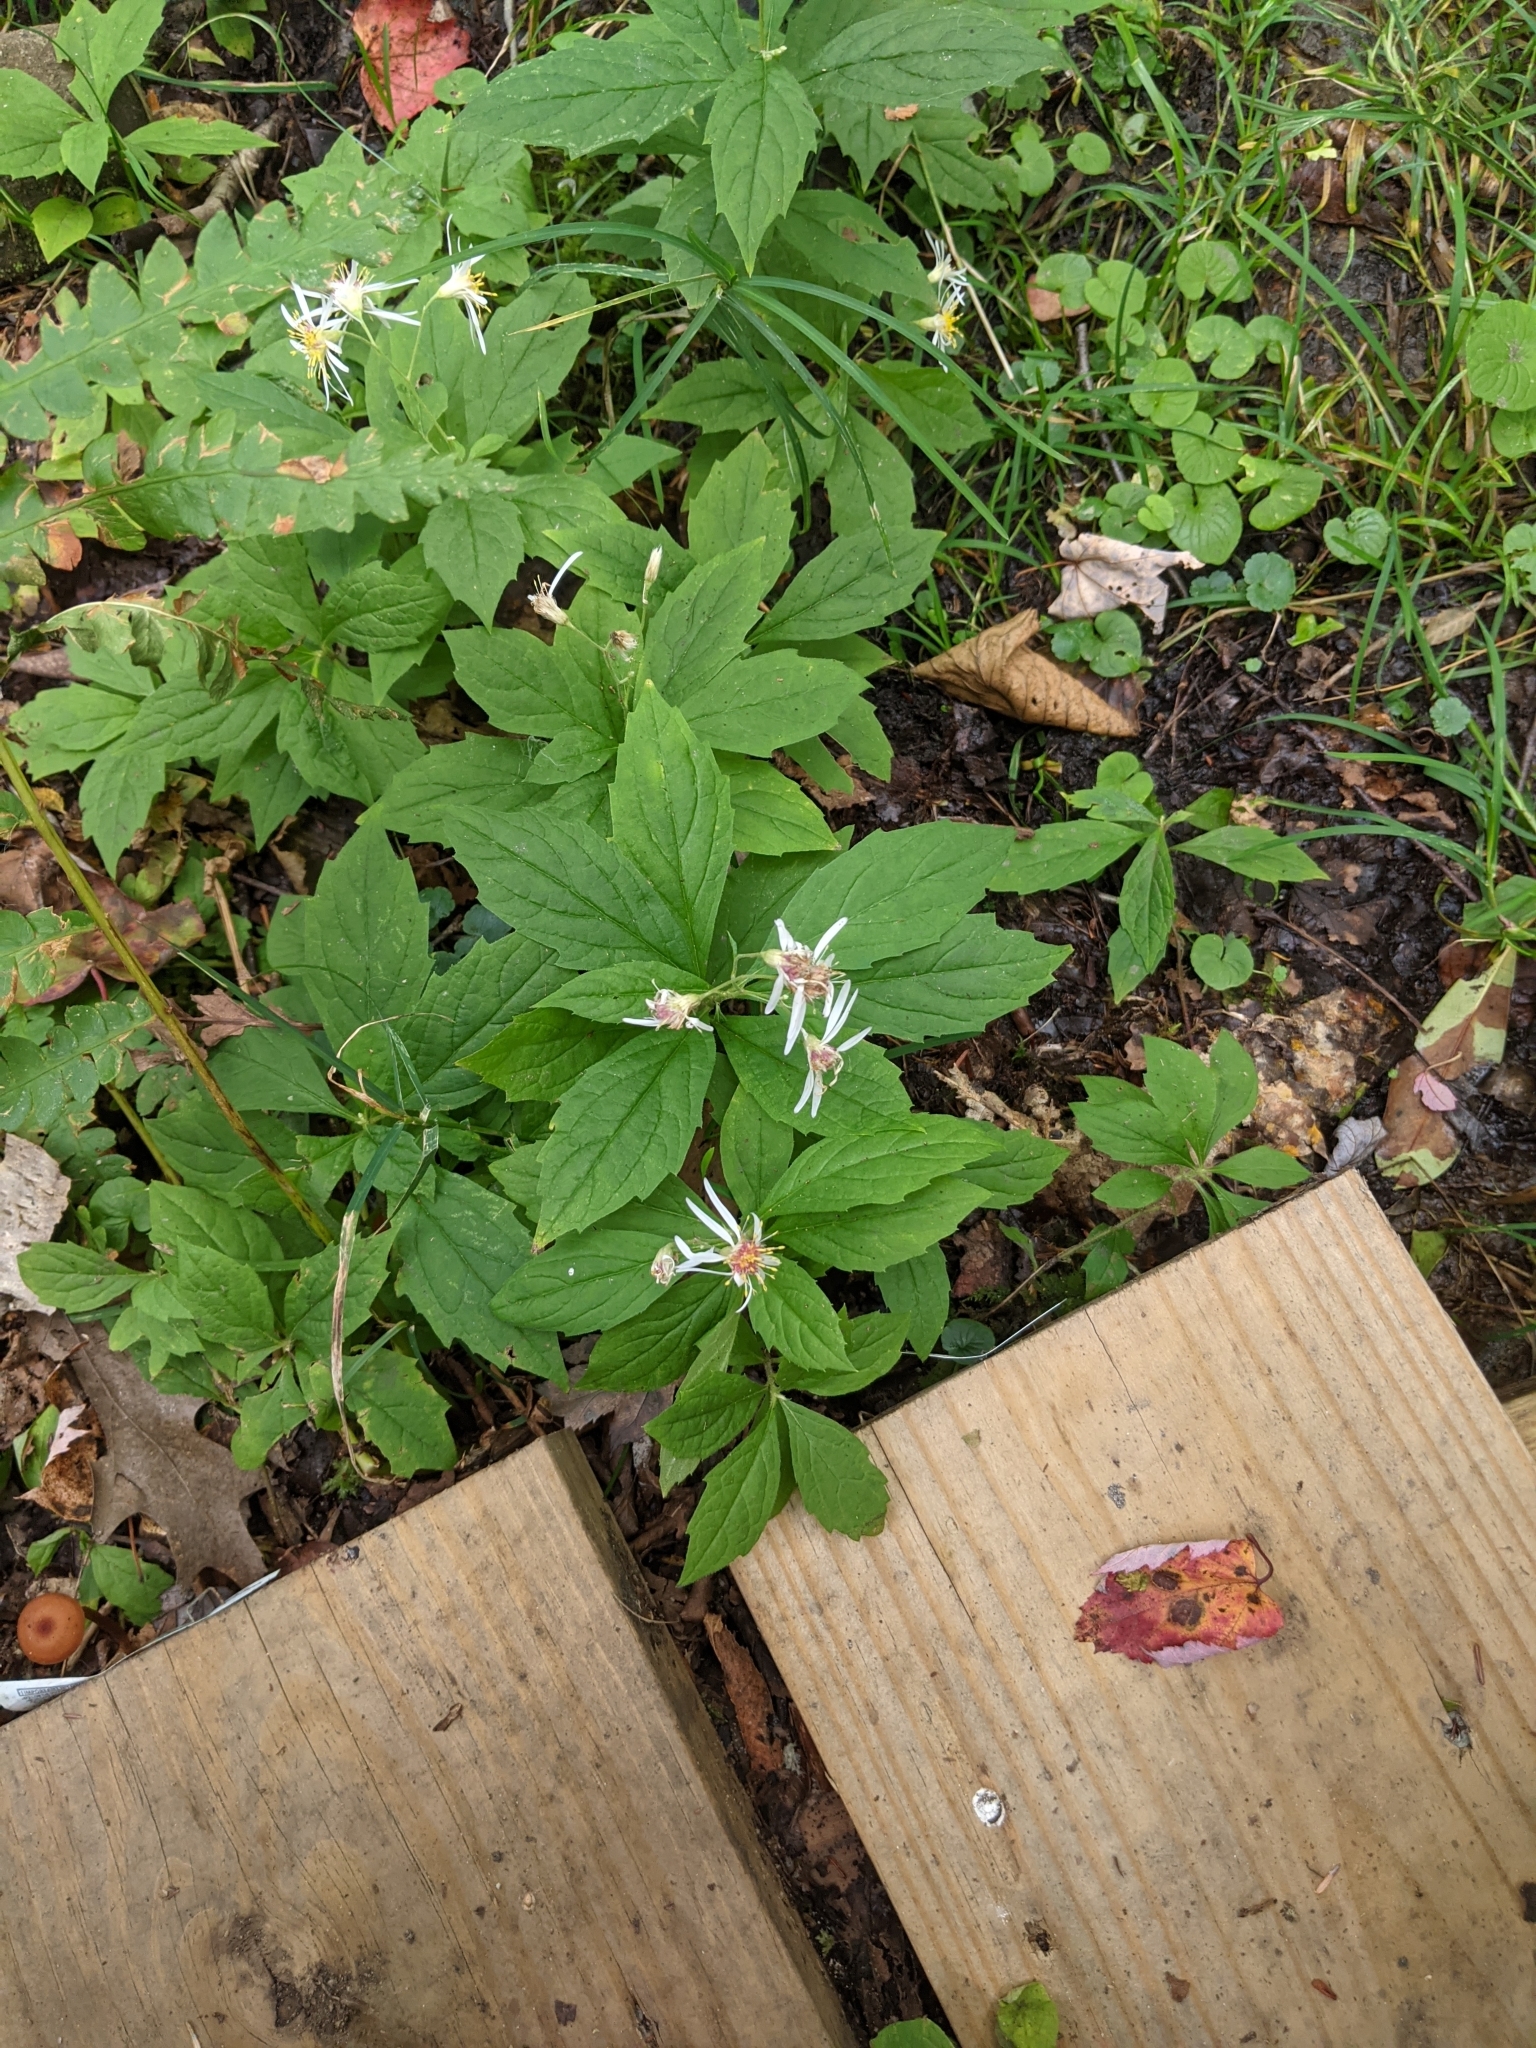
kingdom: Plantae
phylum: Tracheophyta
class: Magnoliopsida
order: Asterales
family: Asteraceae
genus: Oclemena
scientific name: Oclemena acuminata
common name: Mountain aster
